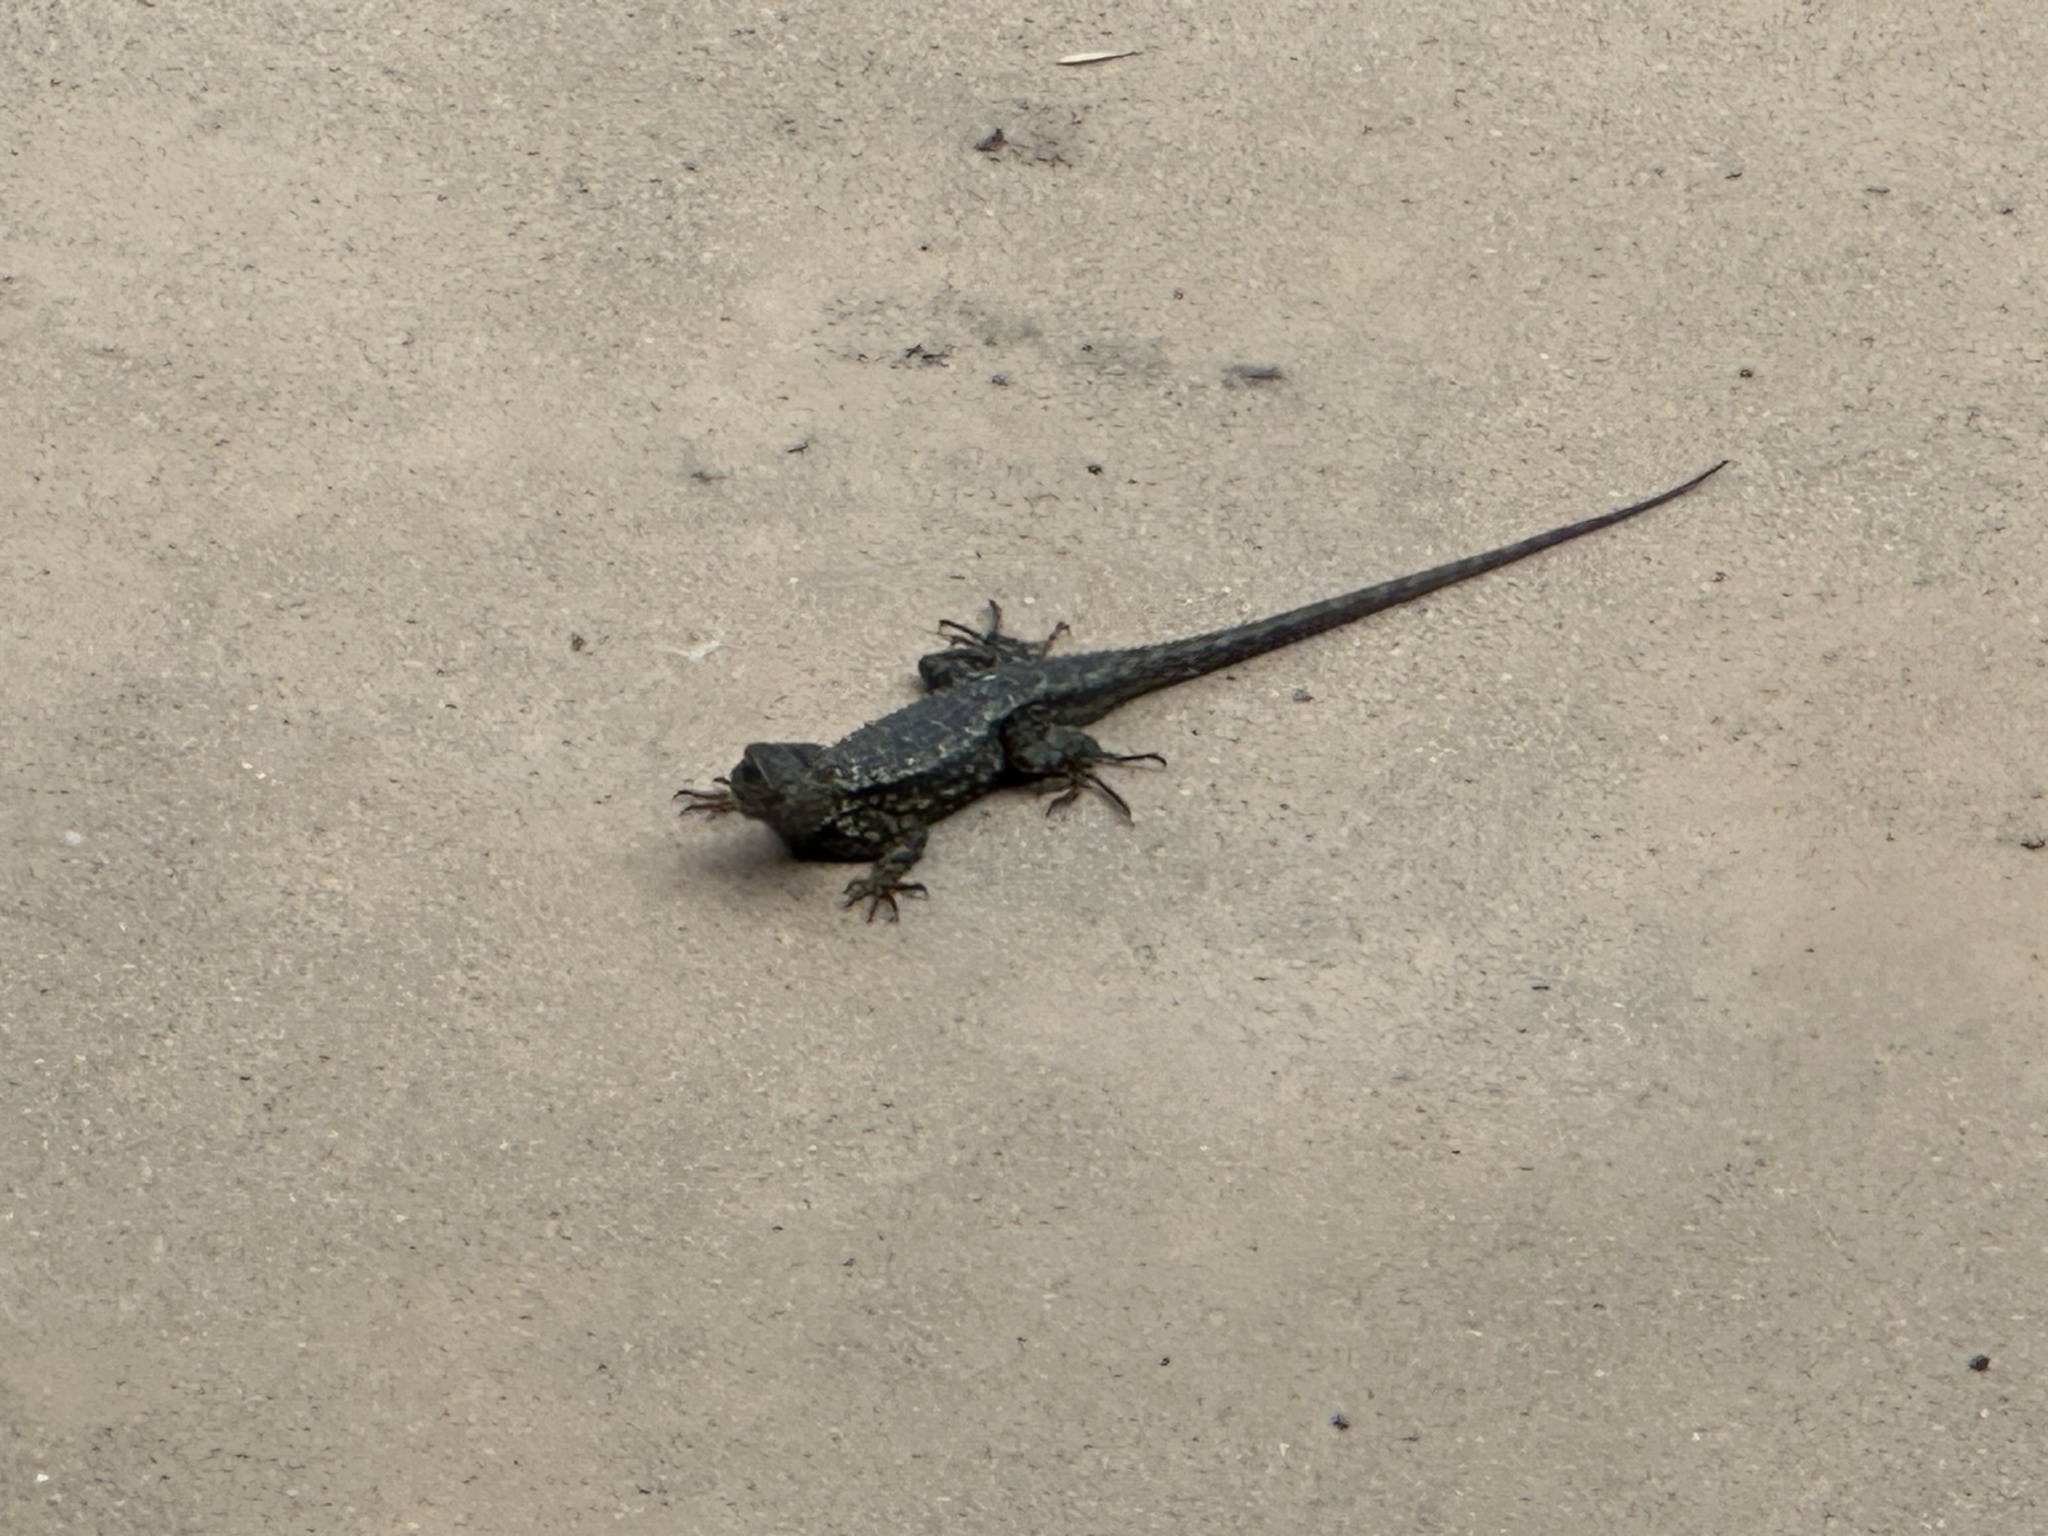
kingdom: Animalia
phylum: Chordata
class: Squamata
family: Phrynosomatidae
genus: Sceloporus
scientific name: Sceloporus occidentalis
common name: Western fence lizard
